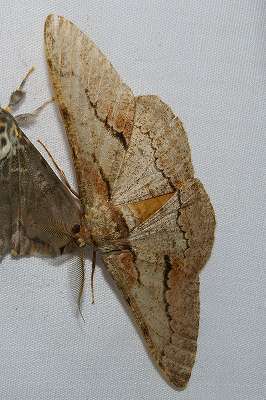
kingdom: Animalia
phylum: Arthropoda
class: Insecta
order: Lepidoptera
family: Geometridae
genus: Phthonosema
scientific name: Phthonosema tendinosaria
